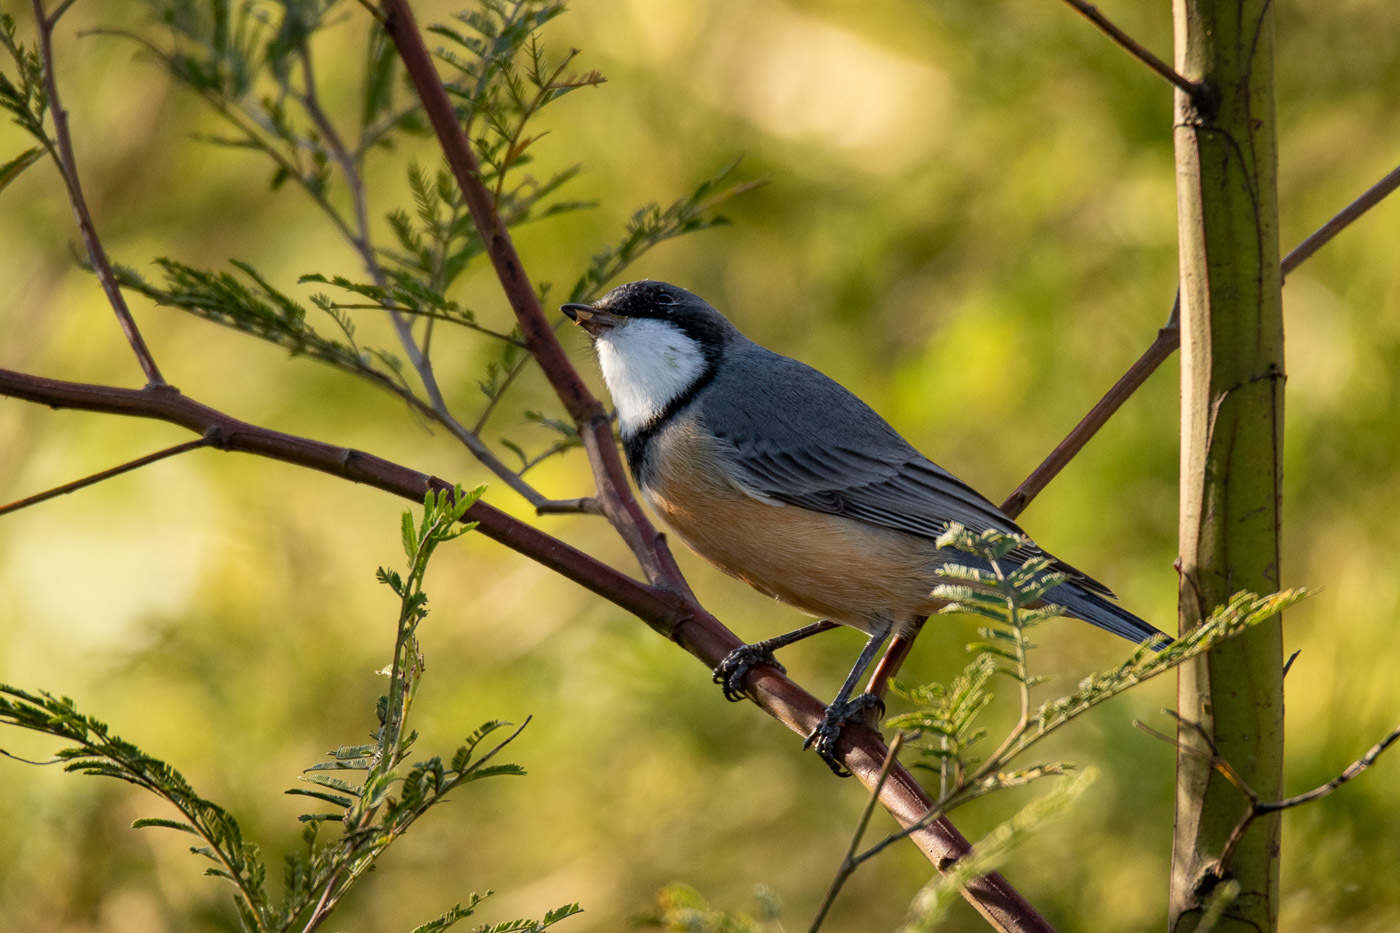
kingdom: Animalia
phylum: Chordata
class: Aves
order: Passeriformes
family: Pachycephalidae
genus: Pachycephala
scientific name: Pachycephala rufiventris
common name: Rufous whistler
